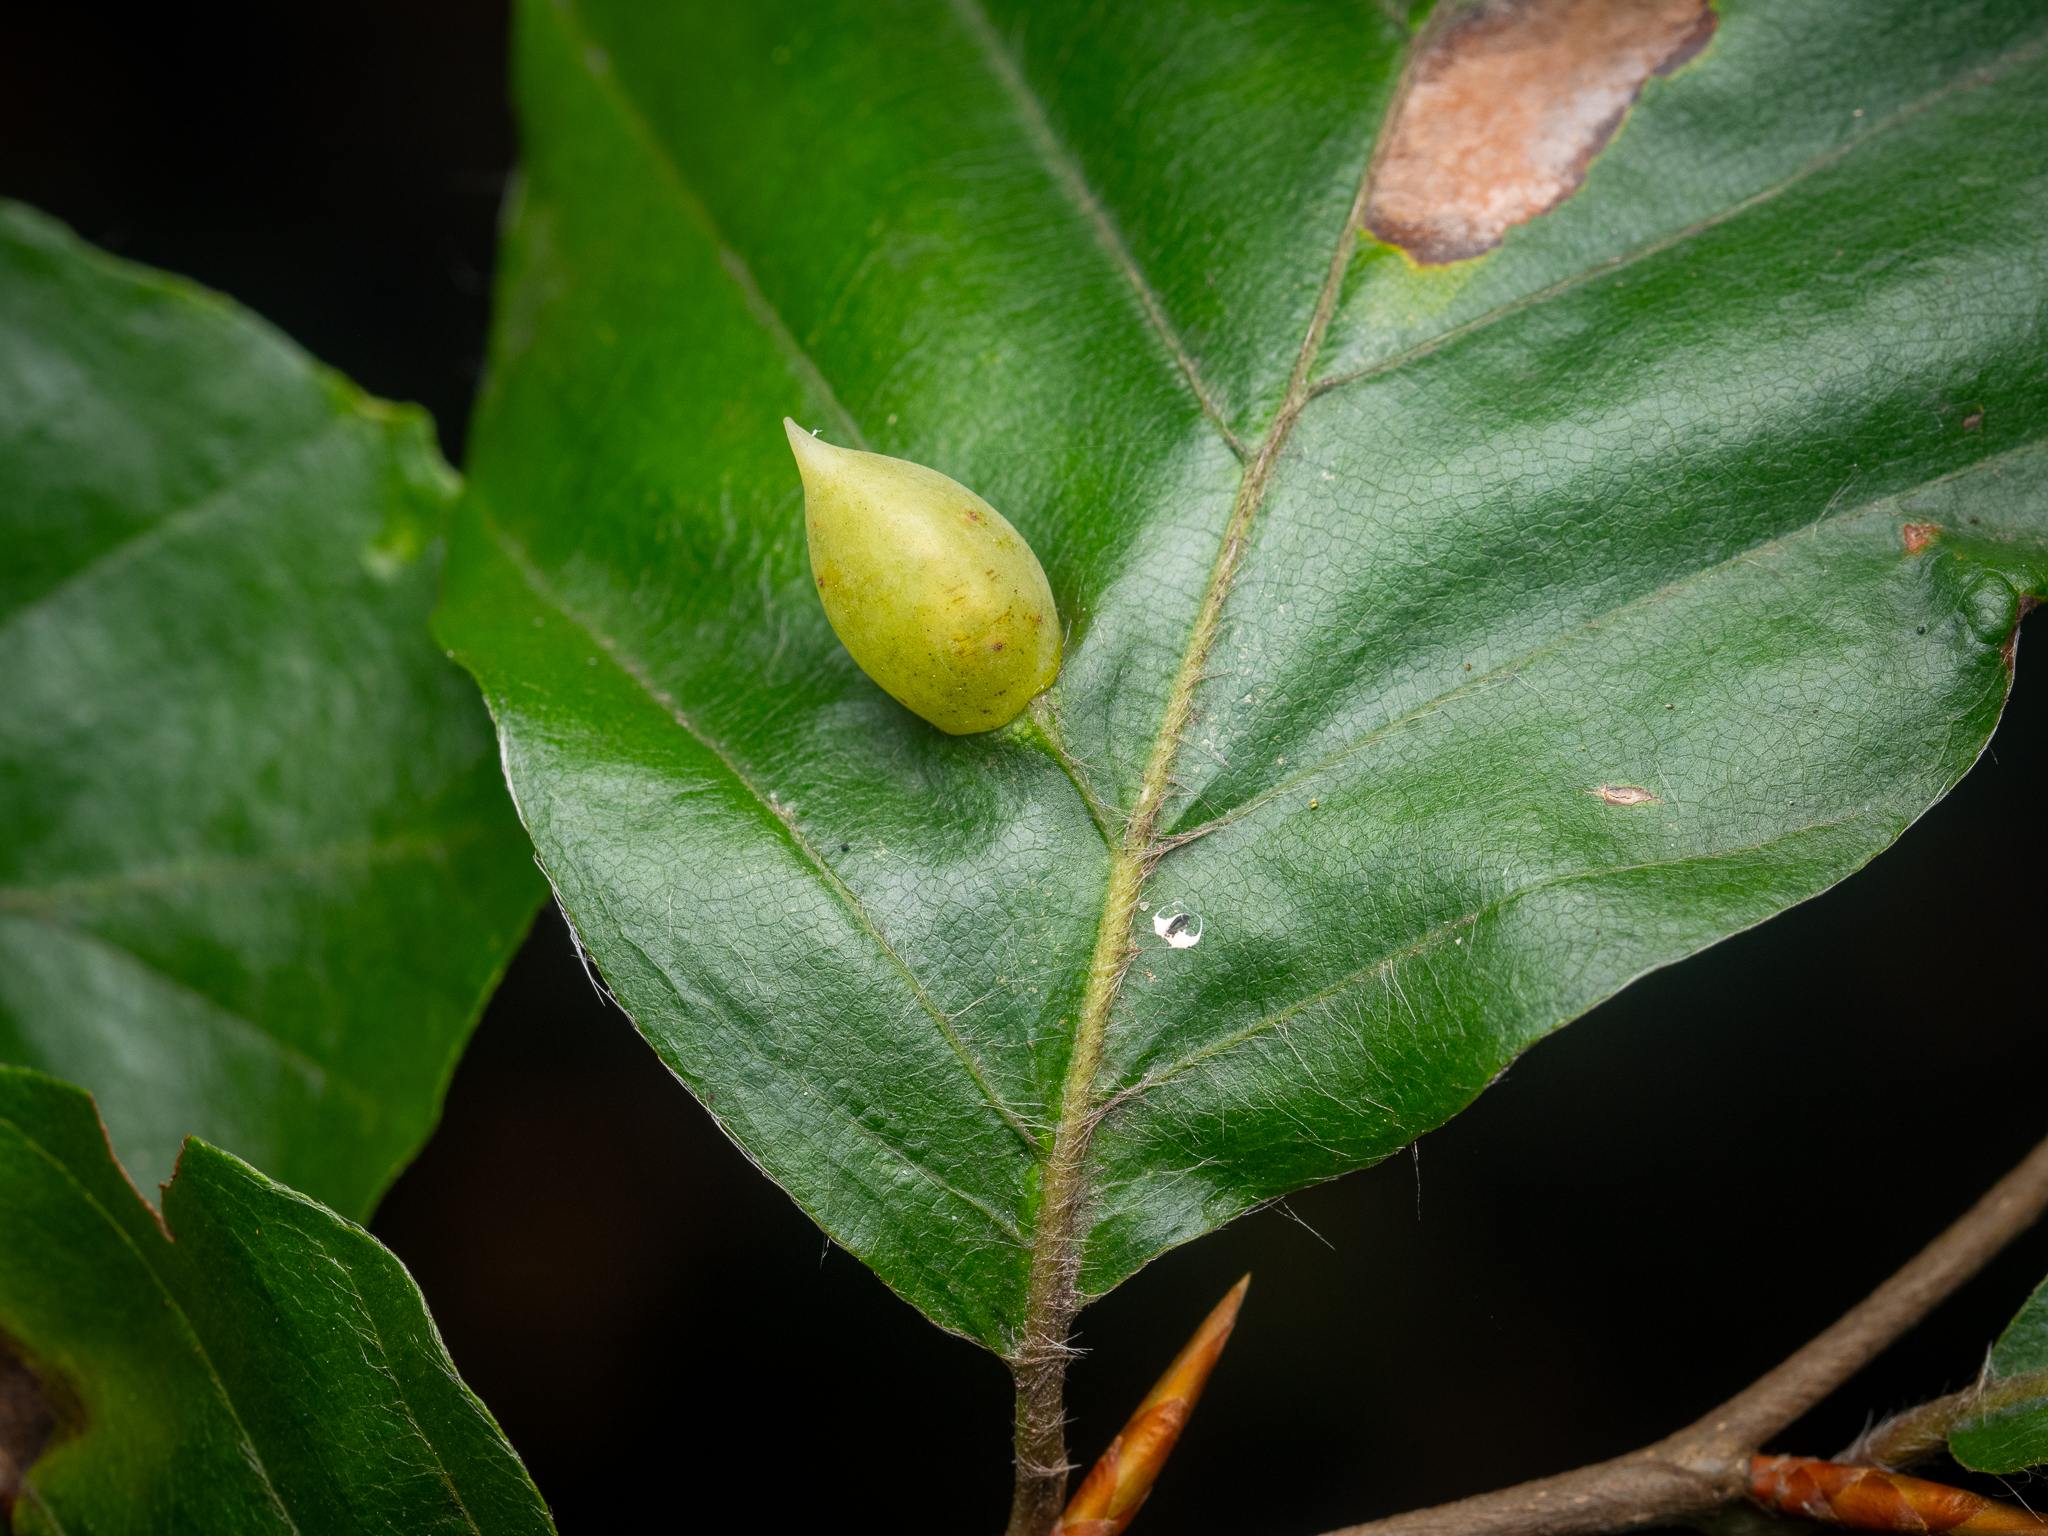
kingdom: Animalia
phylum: Arthropoda
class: Insecta
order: Diptera
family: Cecidomyiidae
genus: Mikiola
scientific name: Mikiola fagi
